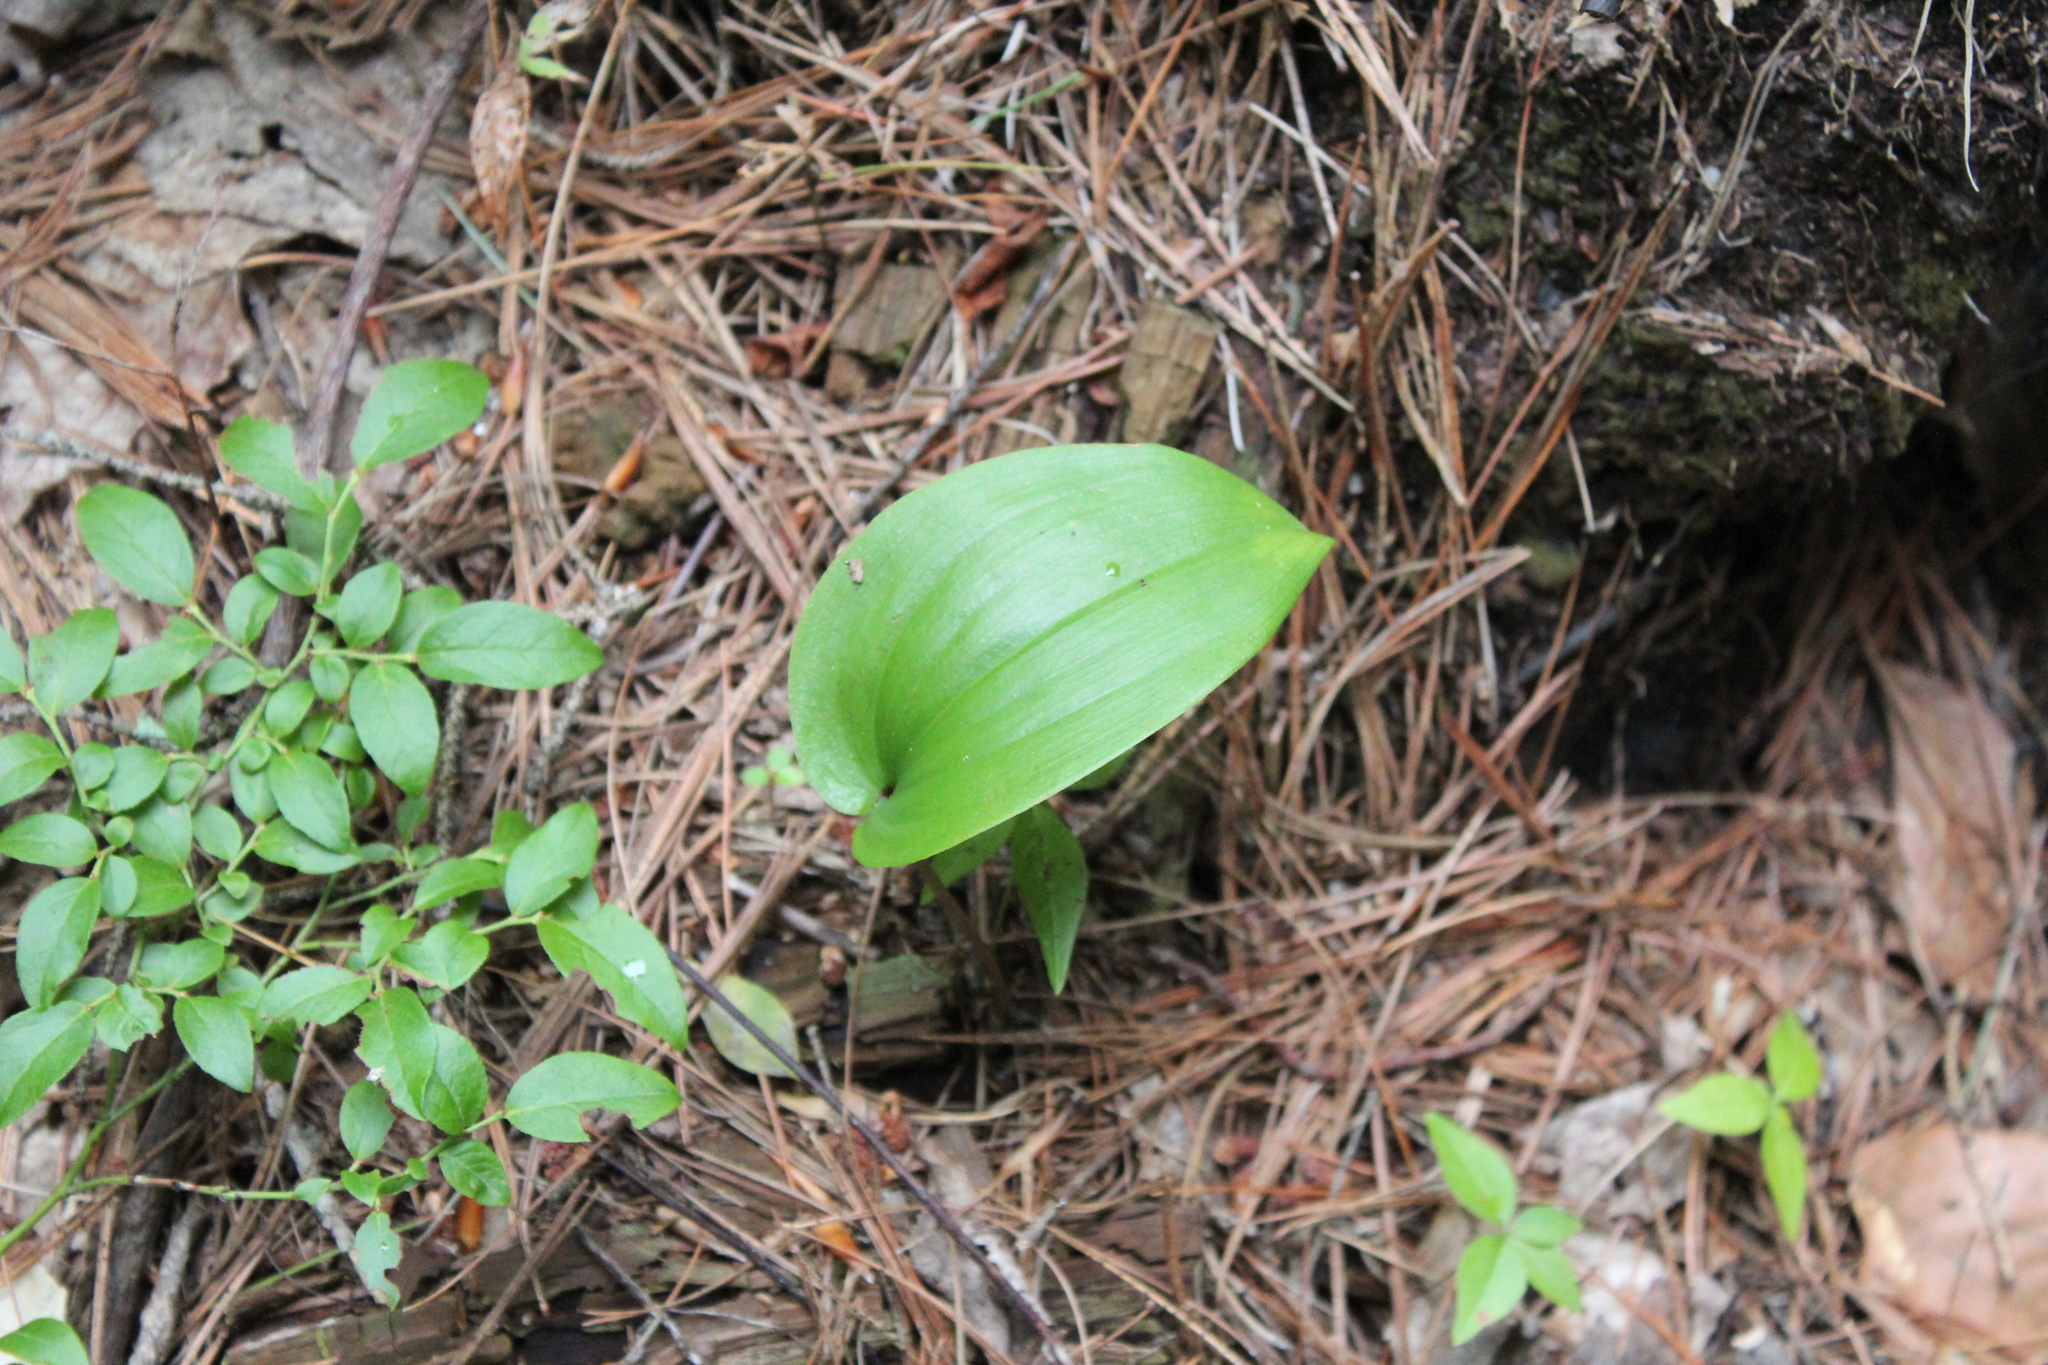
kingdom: Plantae
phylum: Tracheophyta
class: Liliopsida
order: Asparagales
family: Asparagaceae
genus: Maianthemum
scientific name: Maianthemum canadense
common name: False lily-of-the-valley
